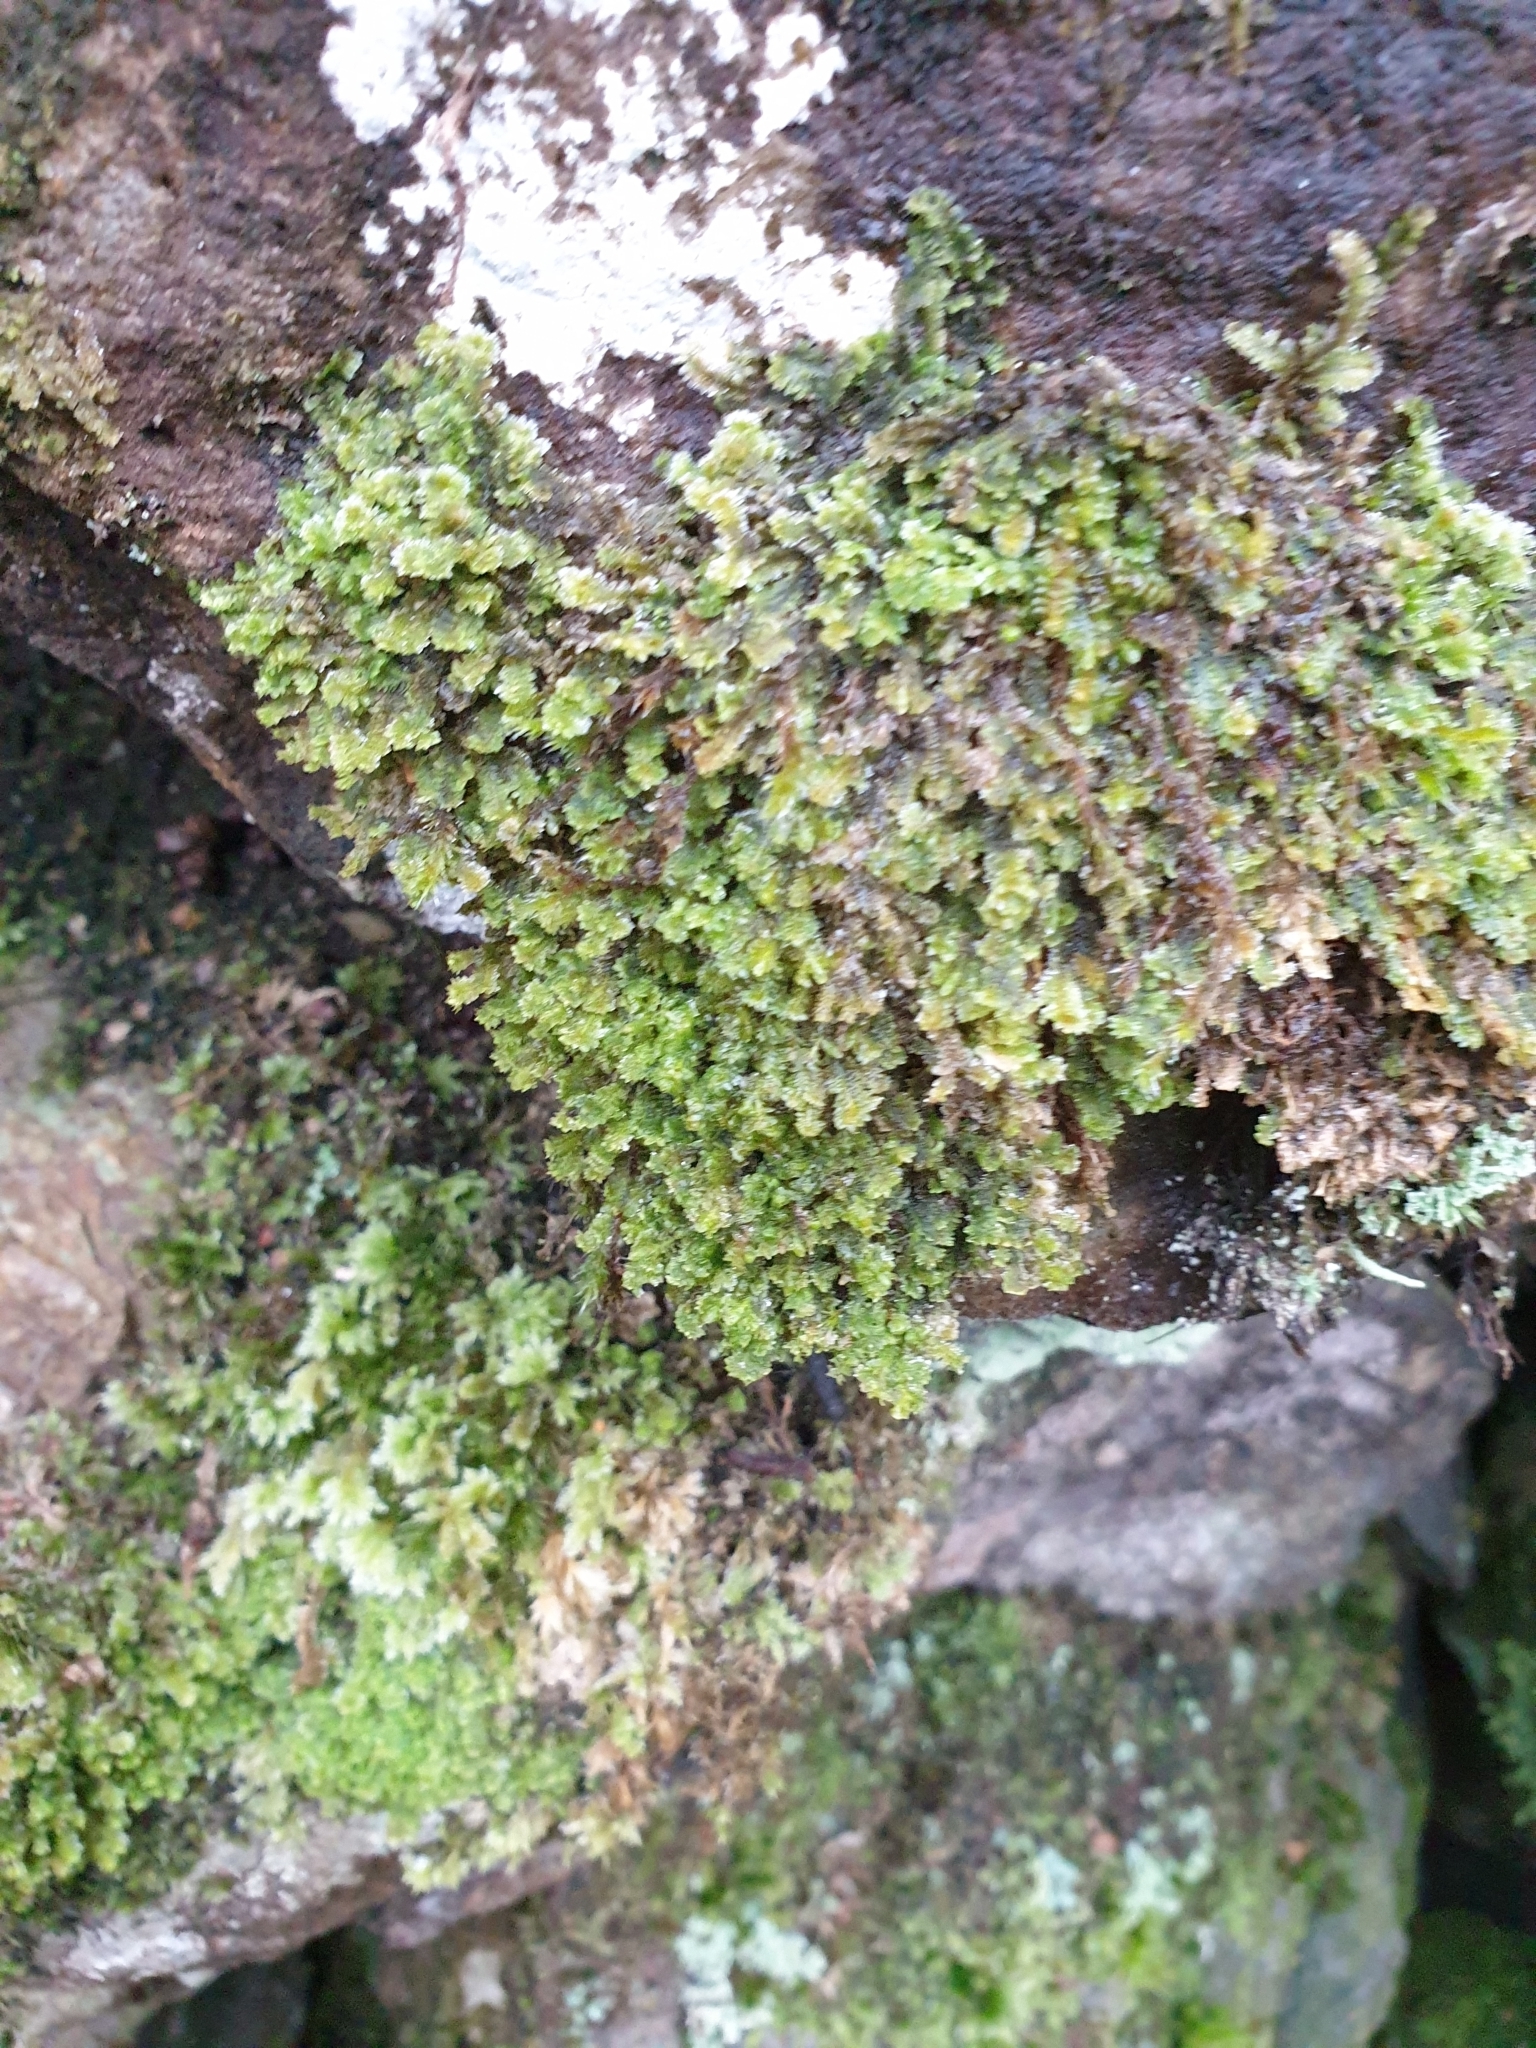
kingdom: Plantae
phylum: Marchantiophyta
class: Jungermanniopsida
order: Jungermanniales
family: Scapaniaceae
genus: Diplophyllum
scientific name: Diplophyllum albicans
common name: White earwort
